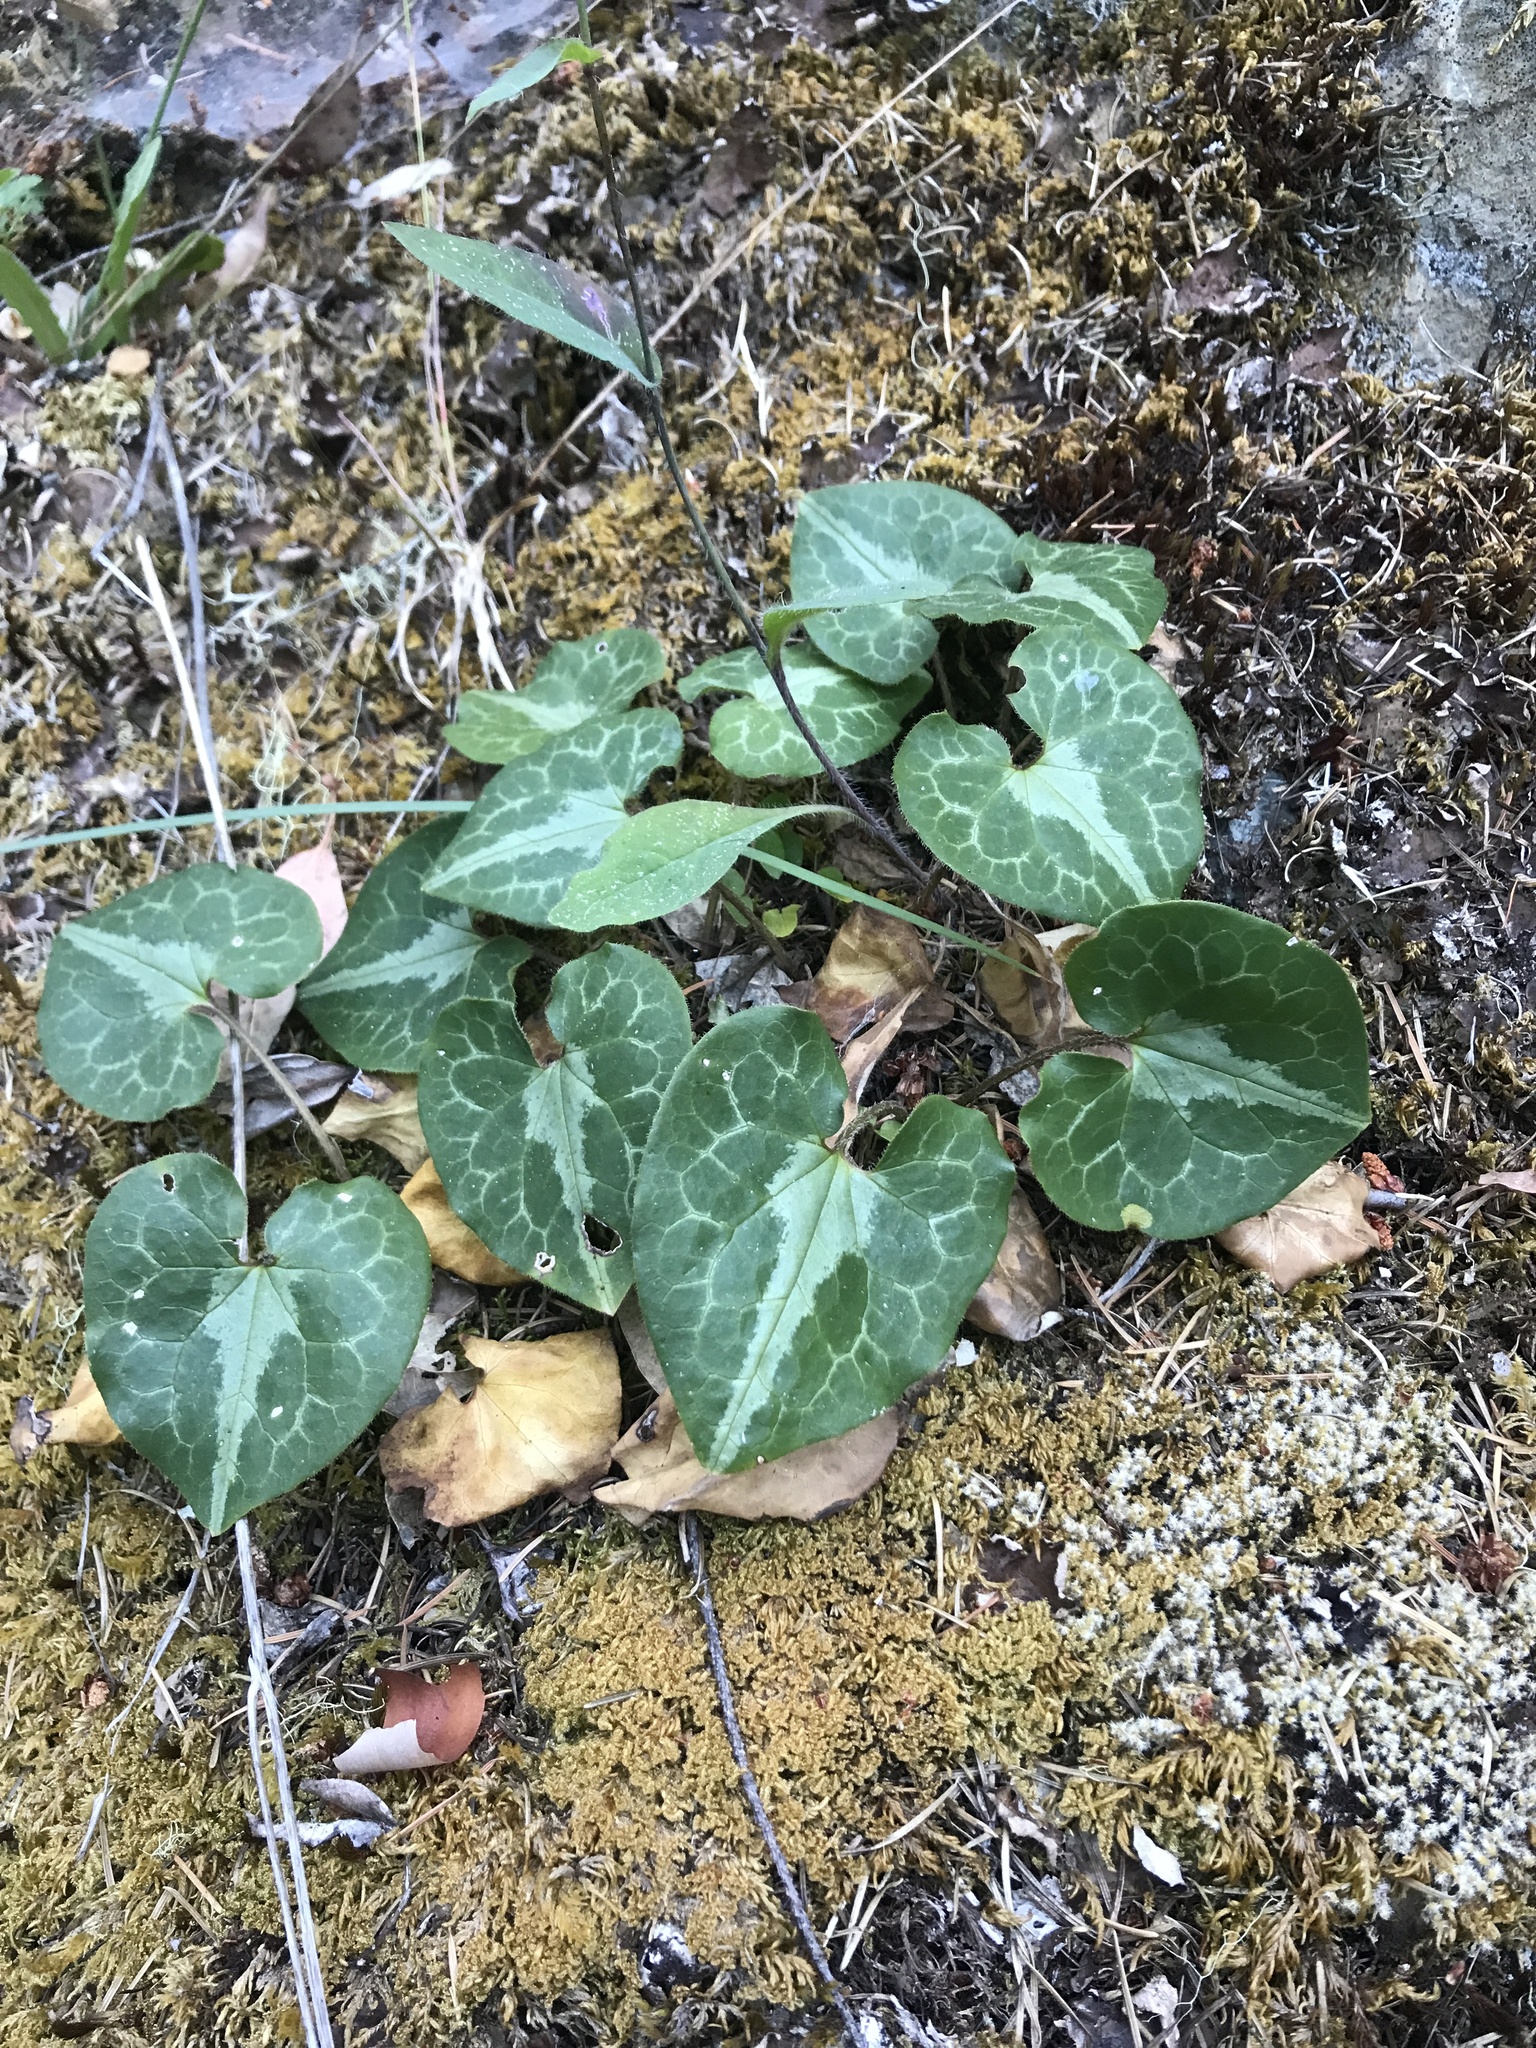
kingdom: Plantae
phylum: Tracheophyta
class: Magnoliopsida
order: Piperales
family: Aristolochiaceae
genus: Asarum
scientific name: Asarum marmoratum
